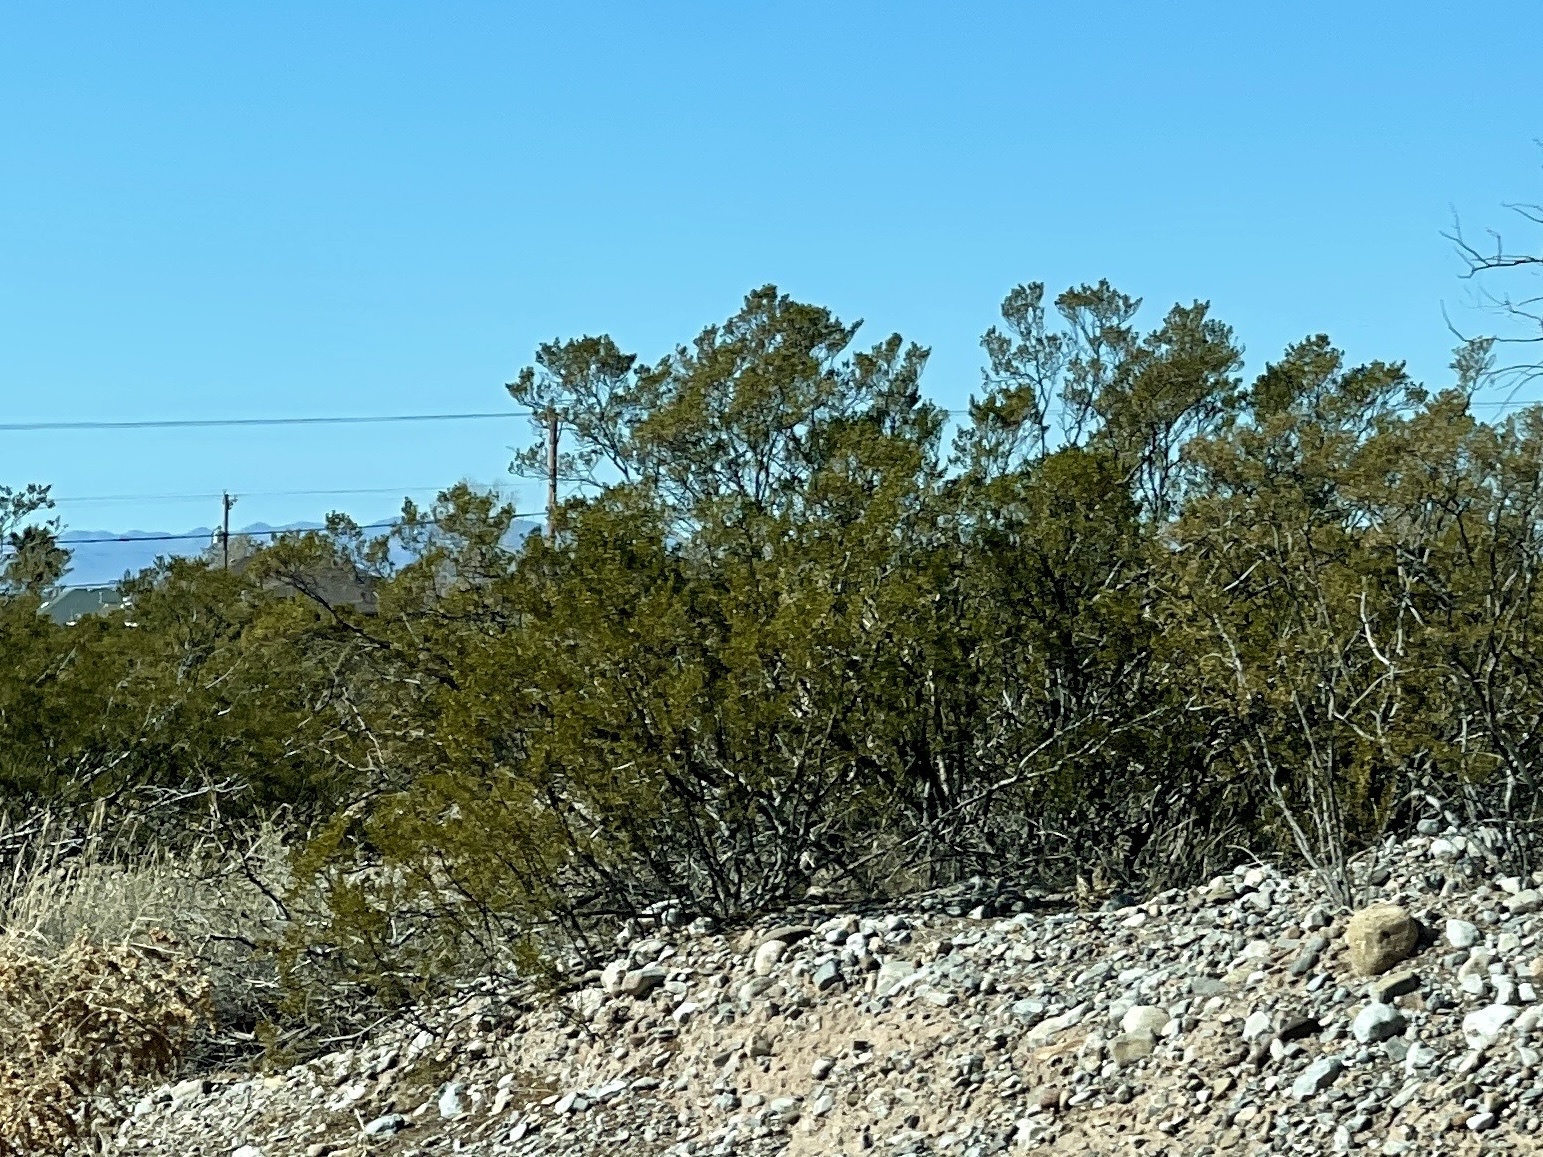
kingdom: Plantae
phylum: Tracheophyta
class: Magnoliopsida
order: Zygophyllales
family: Zygophyllaceae
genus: Larrea
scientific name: Larrea tridentata
